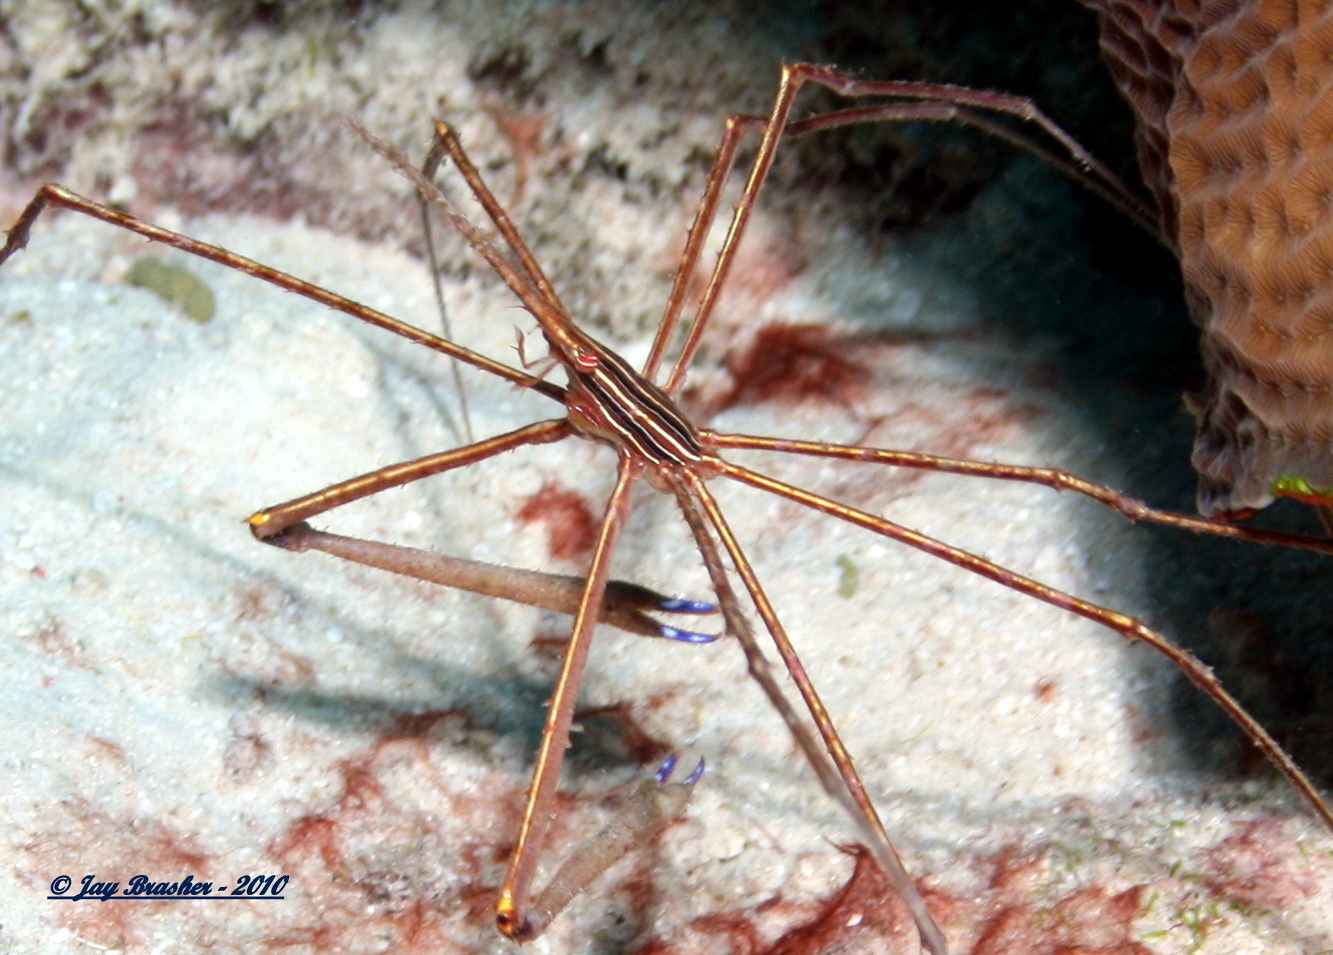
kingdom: Animalia
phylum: Arthropoda
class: Malacostraca
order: Decapoda
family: Inachoididae
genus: Stenorhynchus
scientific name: Stenorhynchus seticornis
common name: Arrow crab
